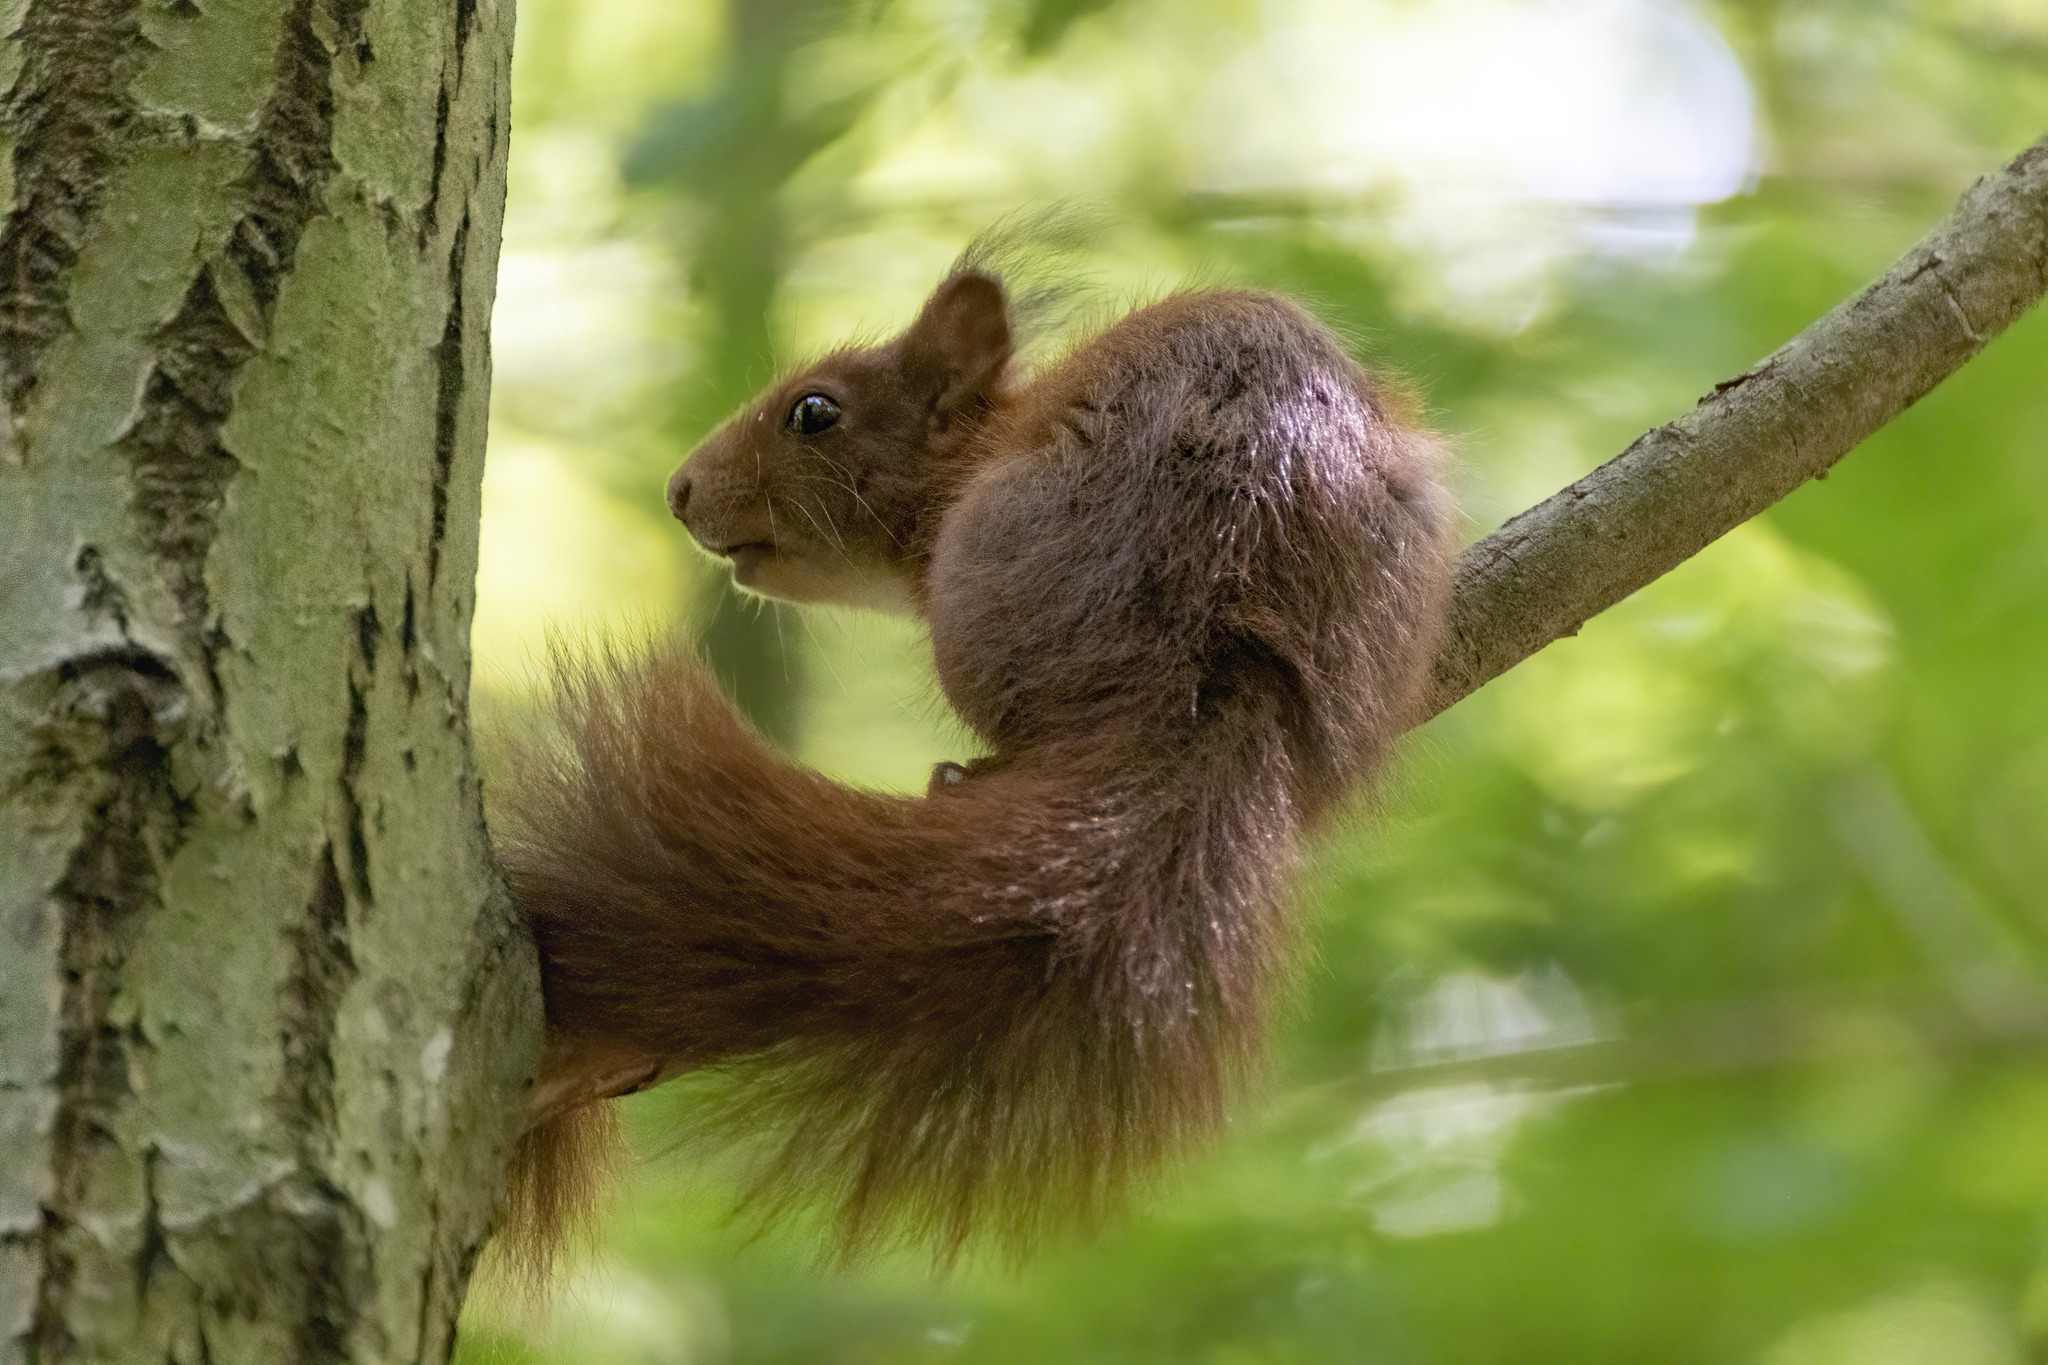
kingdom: Animalia
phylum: Chordata
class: Mammalia
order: Rodentia
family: Sciuridae
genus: Sciurus
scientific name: Sciurus vulgaris
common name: Eurasian red squirrel
